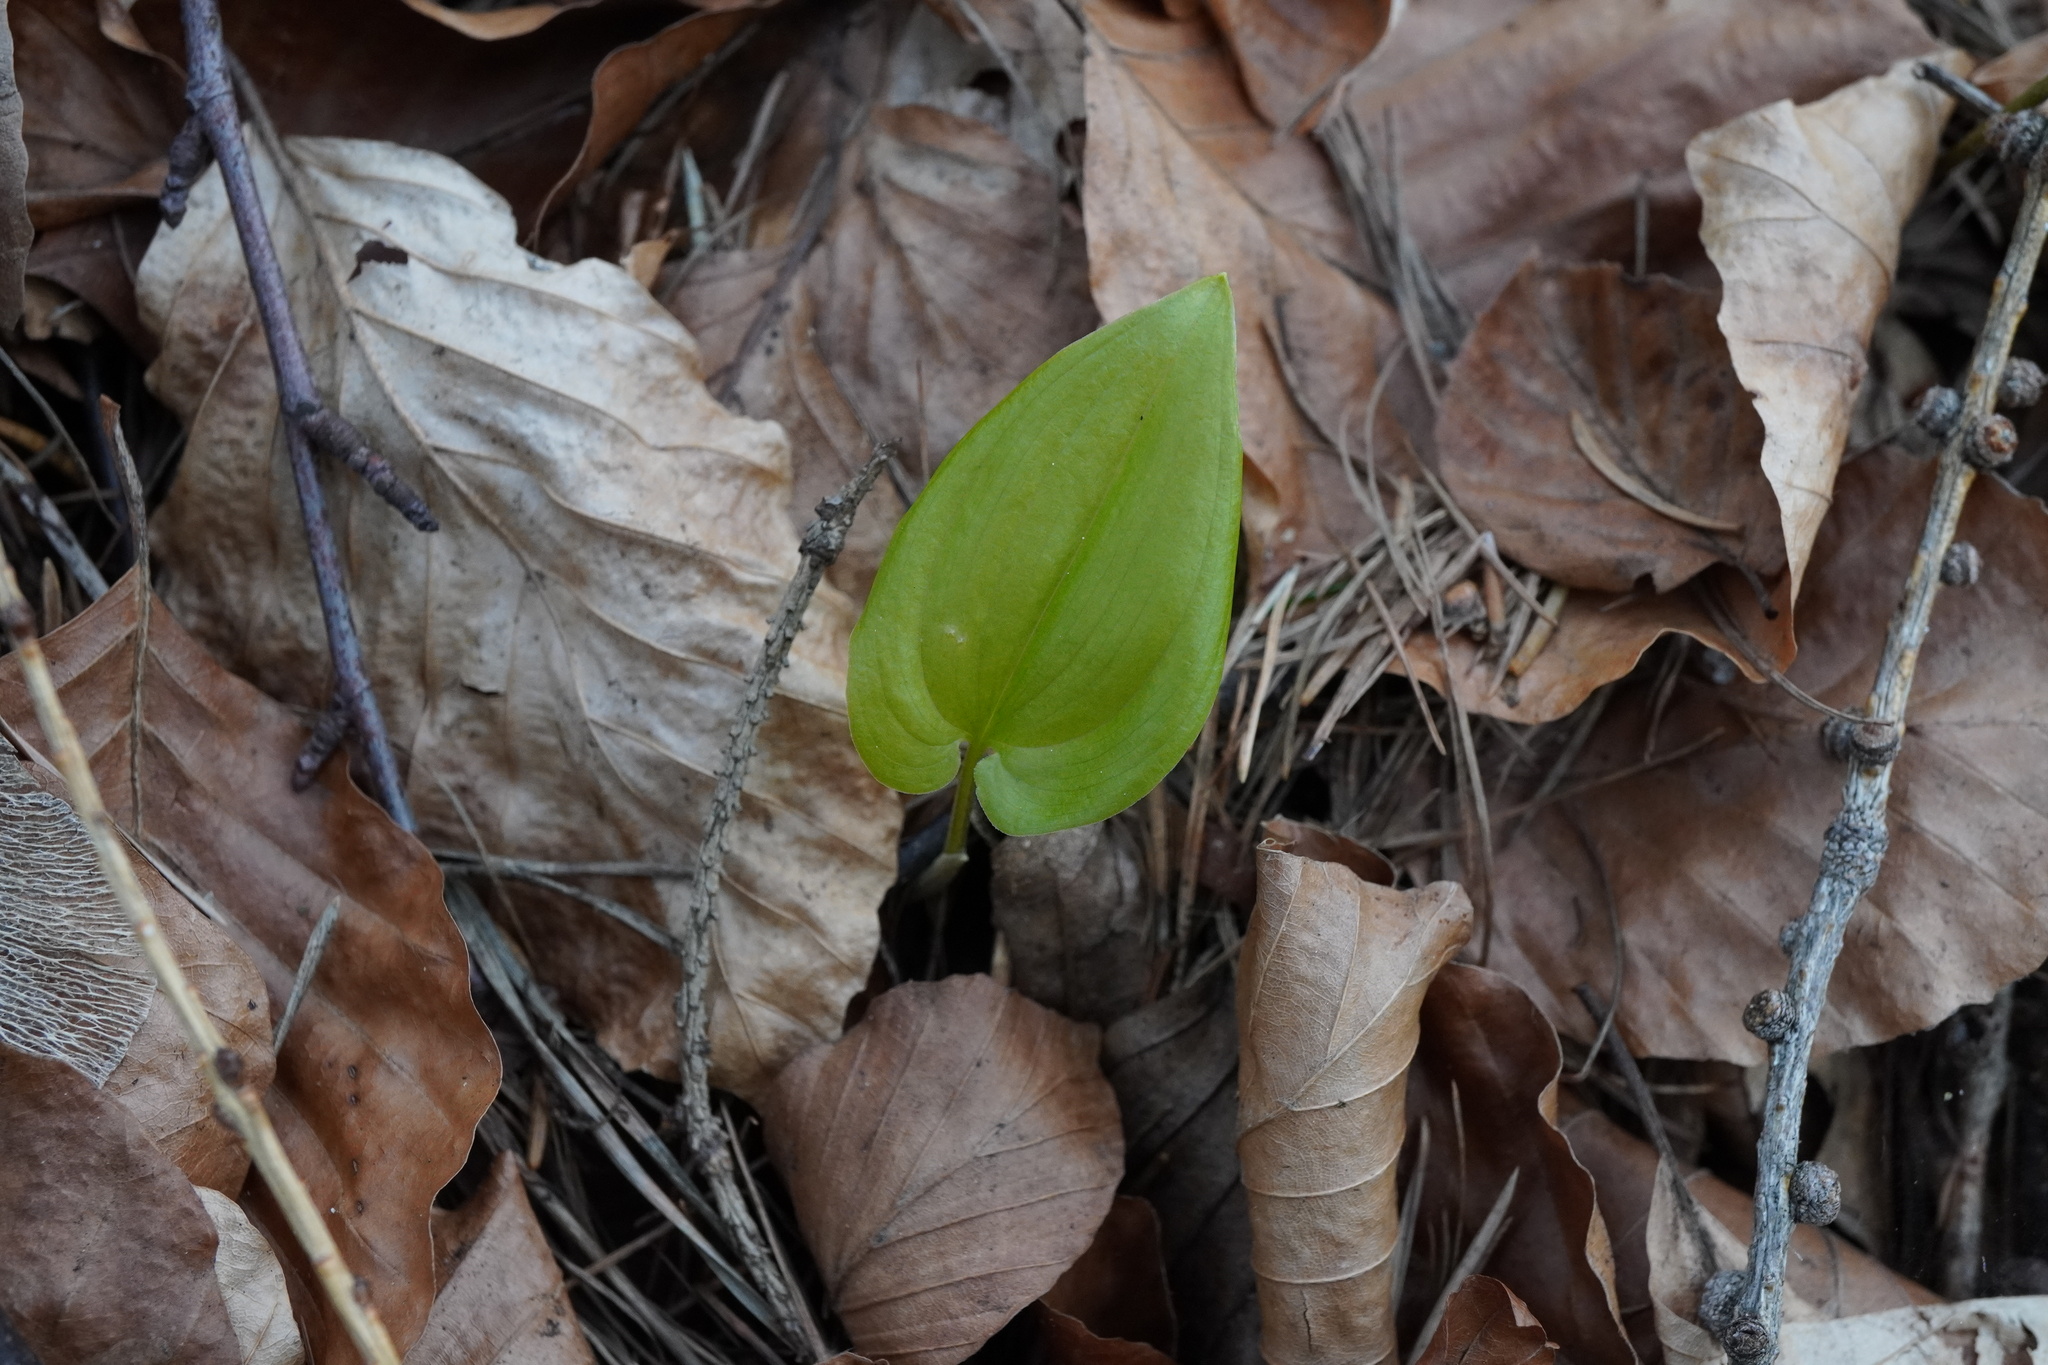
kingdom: Plantae
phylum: Tracheophyta
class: Liliopsida
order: Asparagales
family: Asparagaceae
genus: Maianthemum
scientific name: Maianthemum bifolium
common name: May lily
